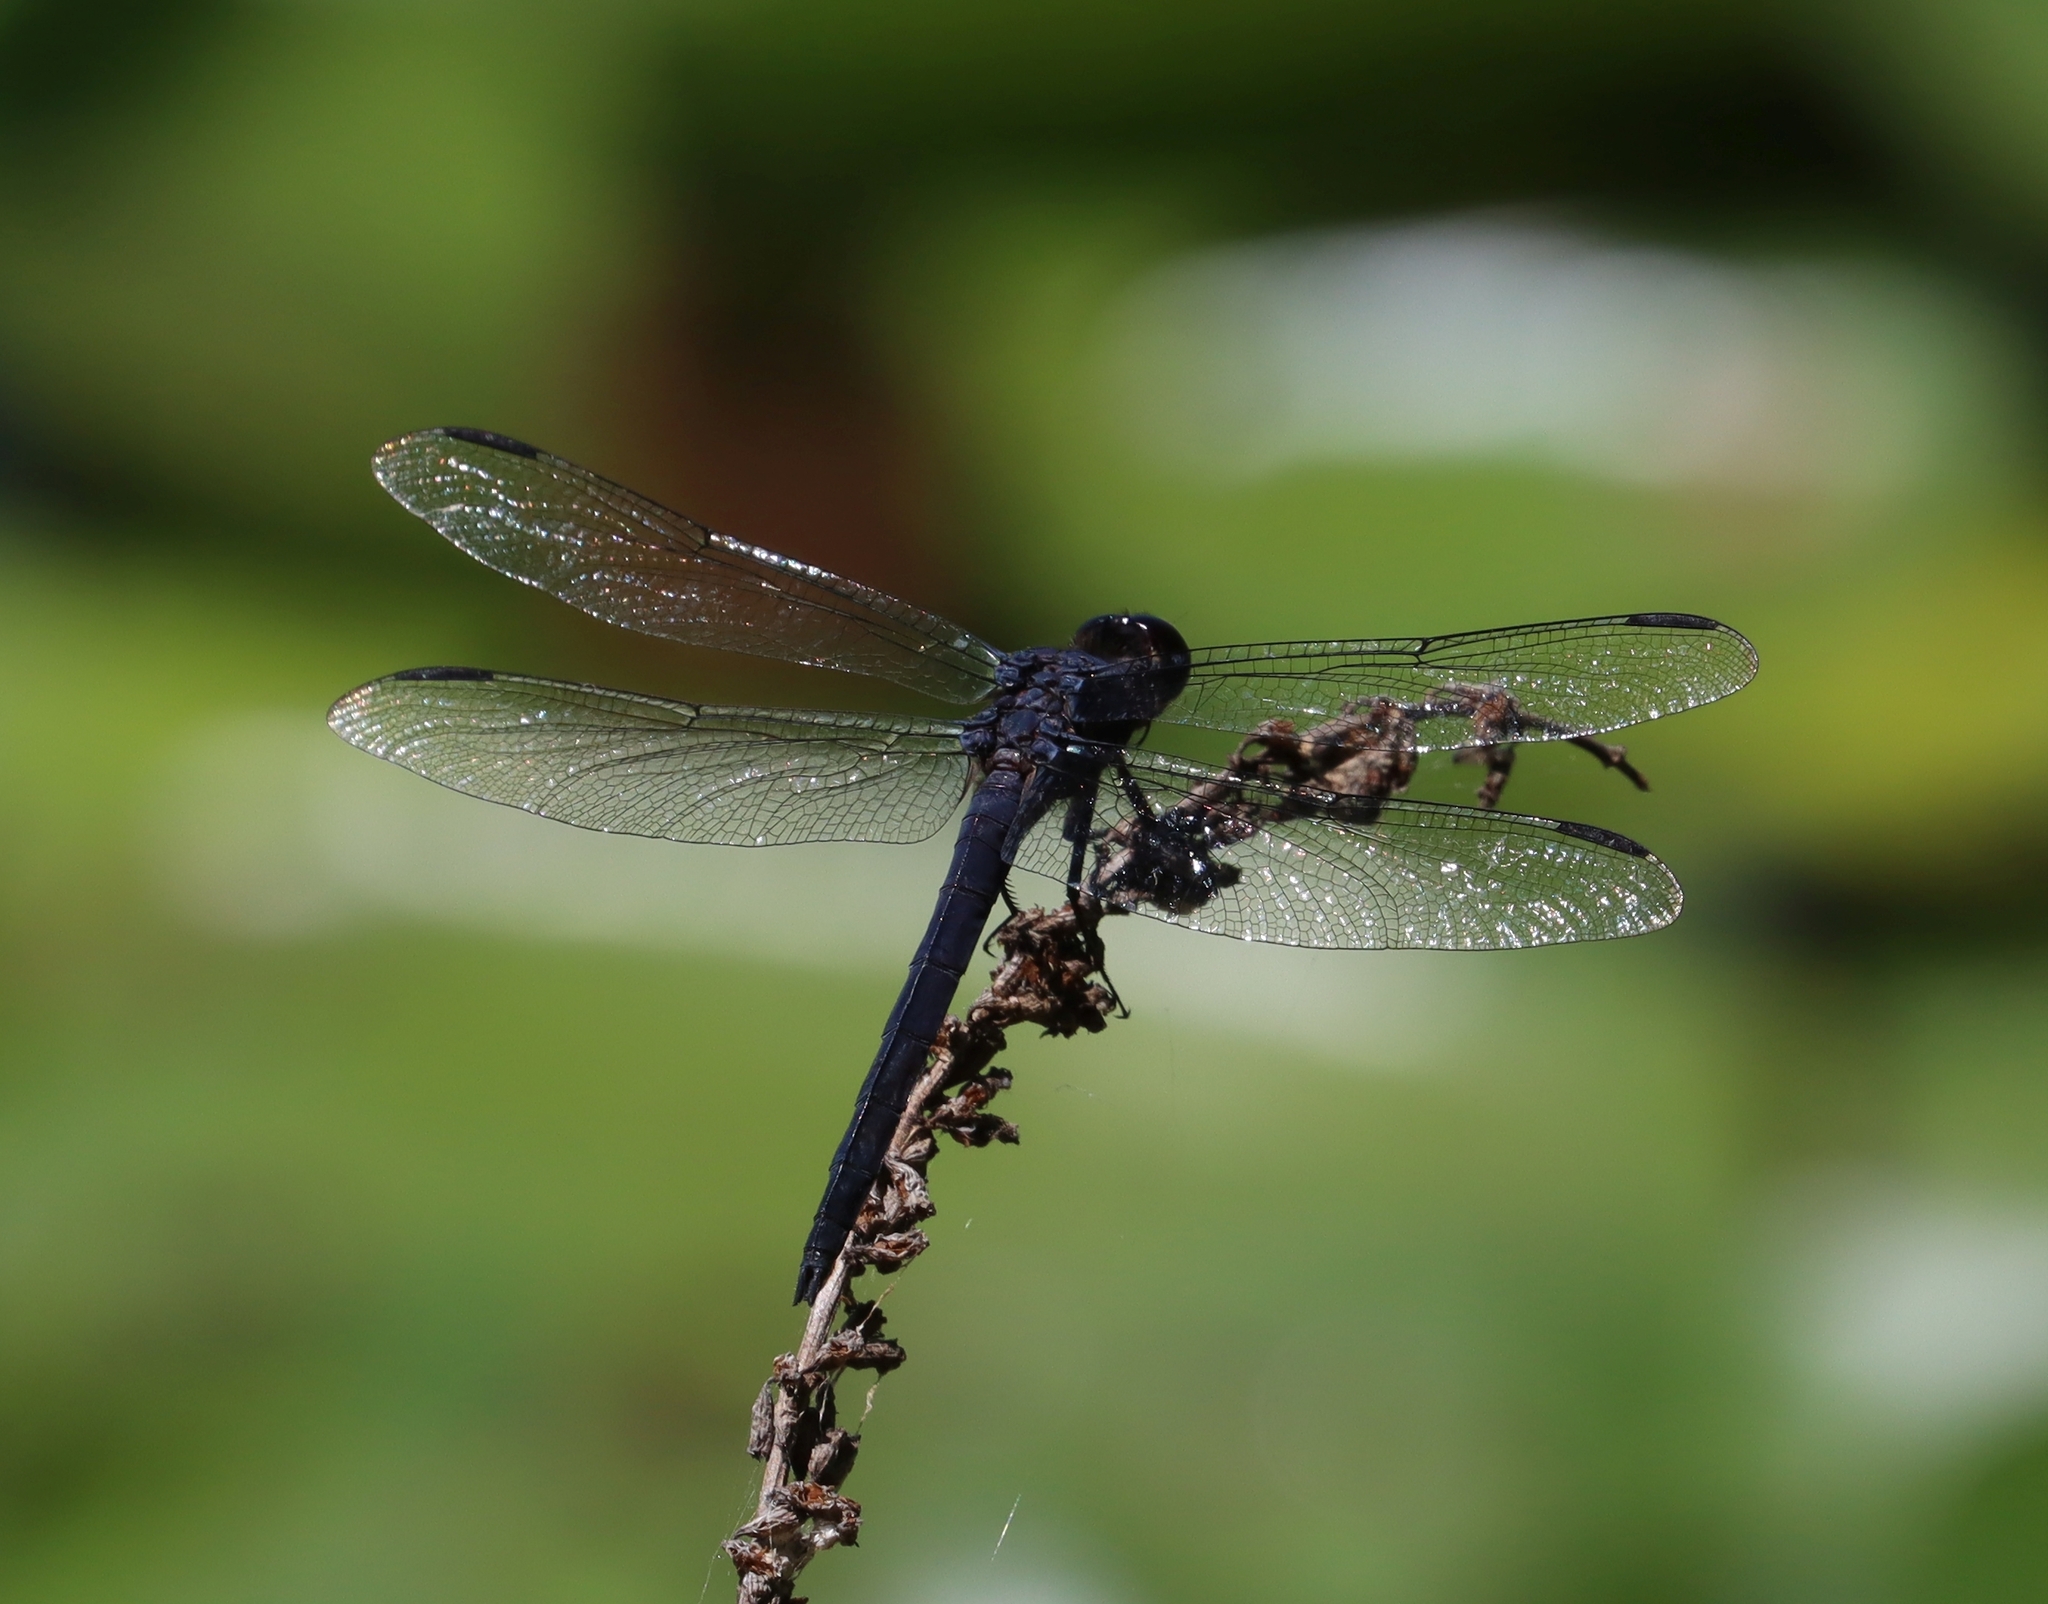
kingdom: Animalia
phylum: Arthropoda
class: Insecta
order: Odonata
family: Libellulidae
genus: Libellula
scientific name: Libellula incesta
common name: Slaty skimmer
